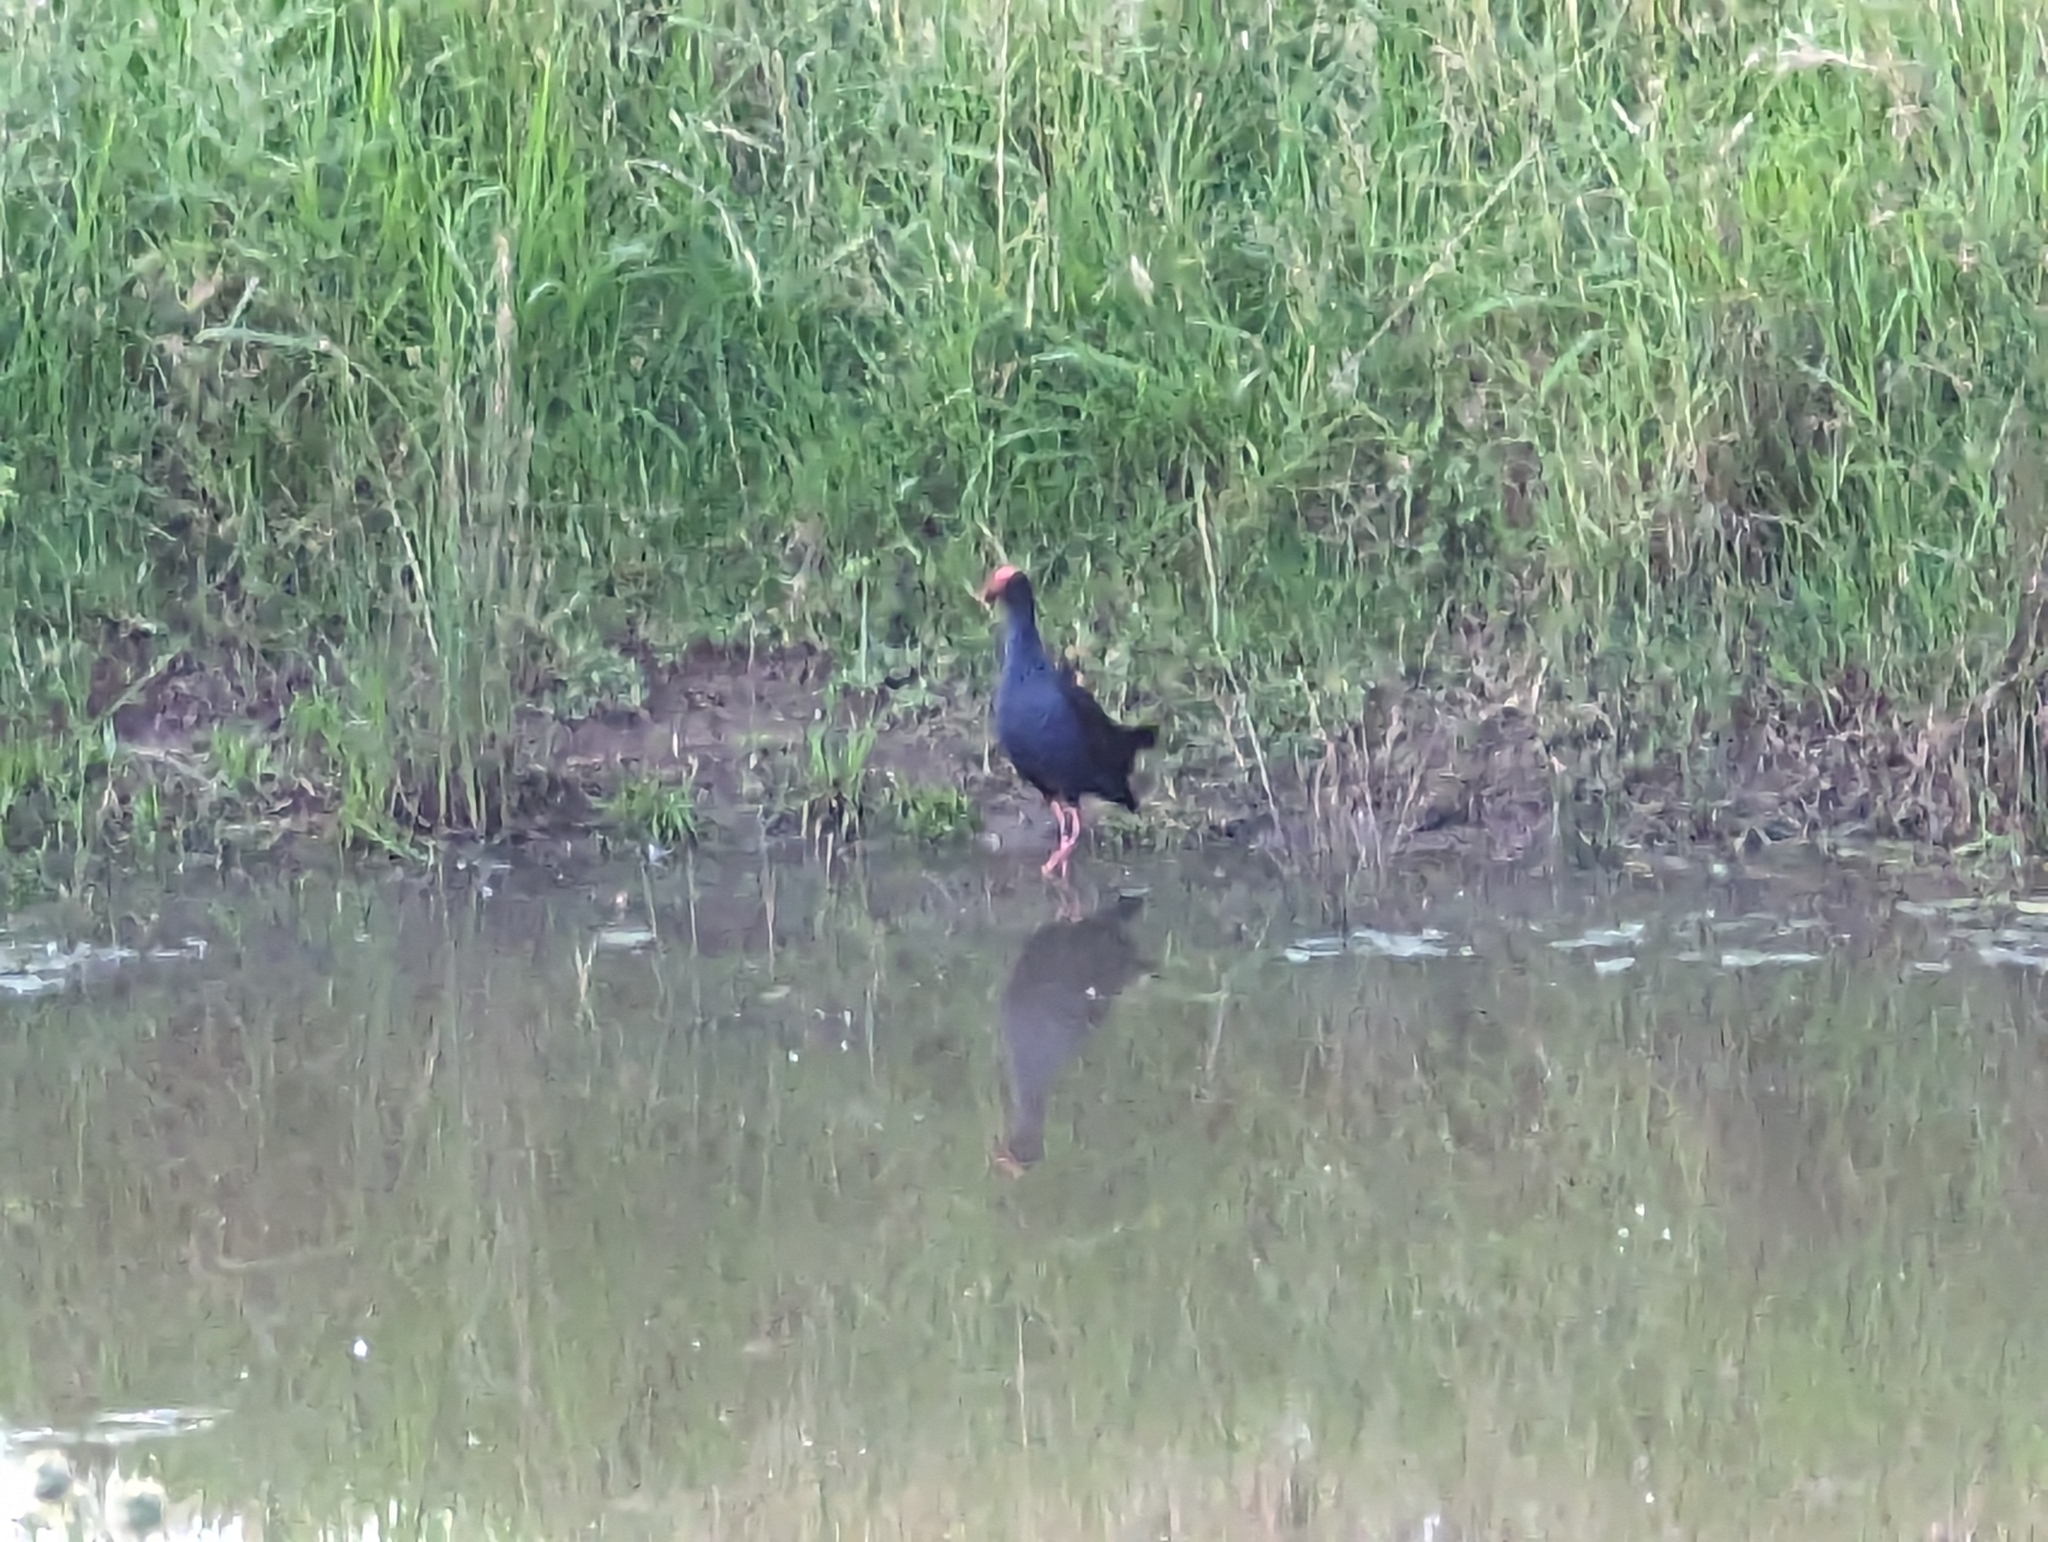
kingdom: Animalia
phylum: Chordata
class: Aves
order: Gruiformes
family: Rallidae
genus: Porphyrio
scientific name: Porphyrio melanotus
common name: Australasian swamphen
